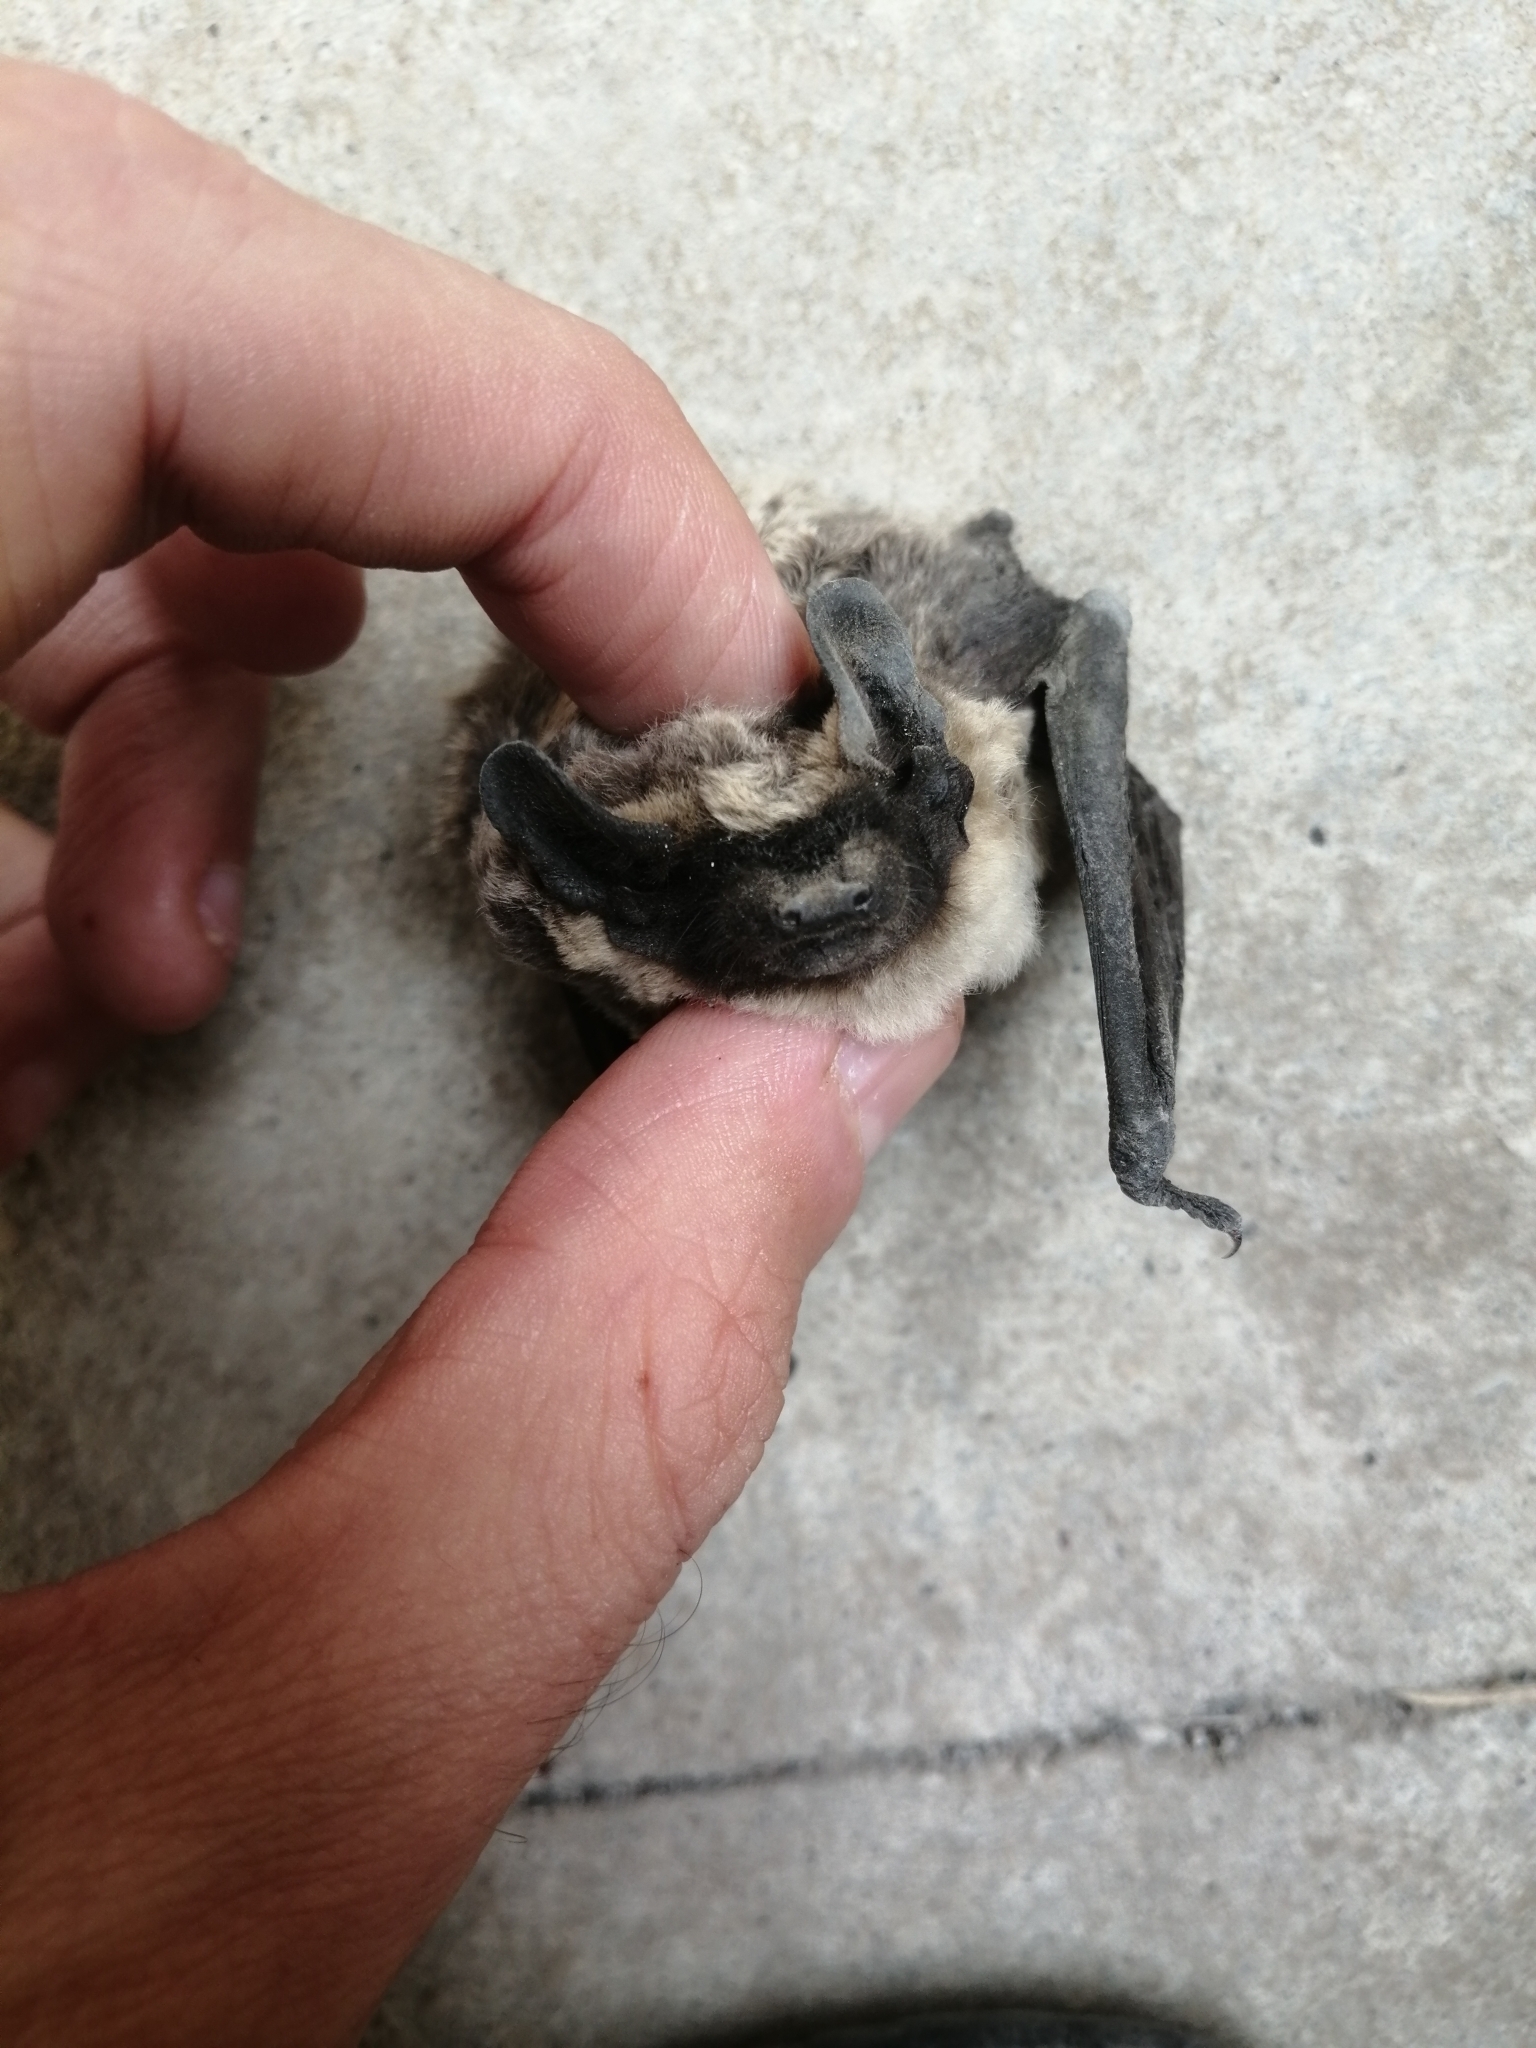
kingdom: Animalia
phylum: Chordata
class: Mammalia
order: Chiroptera
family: Vespertilionidae
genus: Vespertilio
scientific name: Vespertilio murinus
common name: Particolored bat
